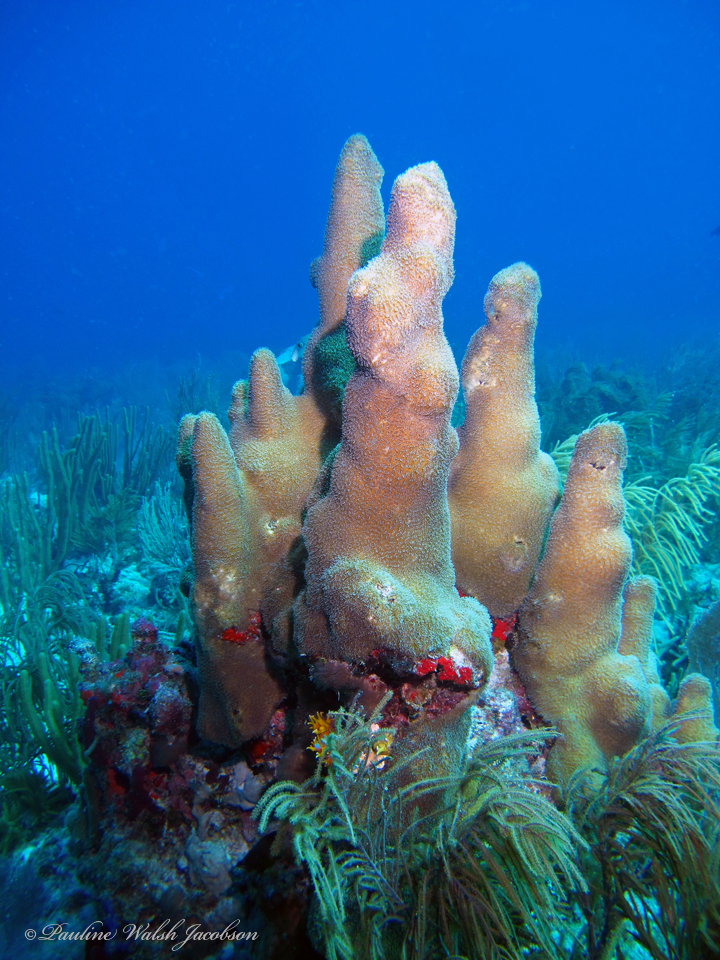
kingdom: Animalia
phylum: Cnidaria
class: Anthozoa
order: Scleractinia
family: Meandrinidae
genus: Dendrogyra
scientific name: Dendrogyra cylindrus
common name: Pillar coral
